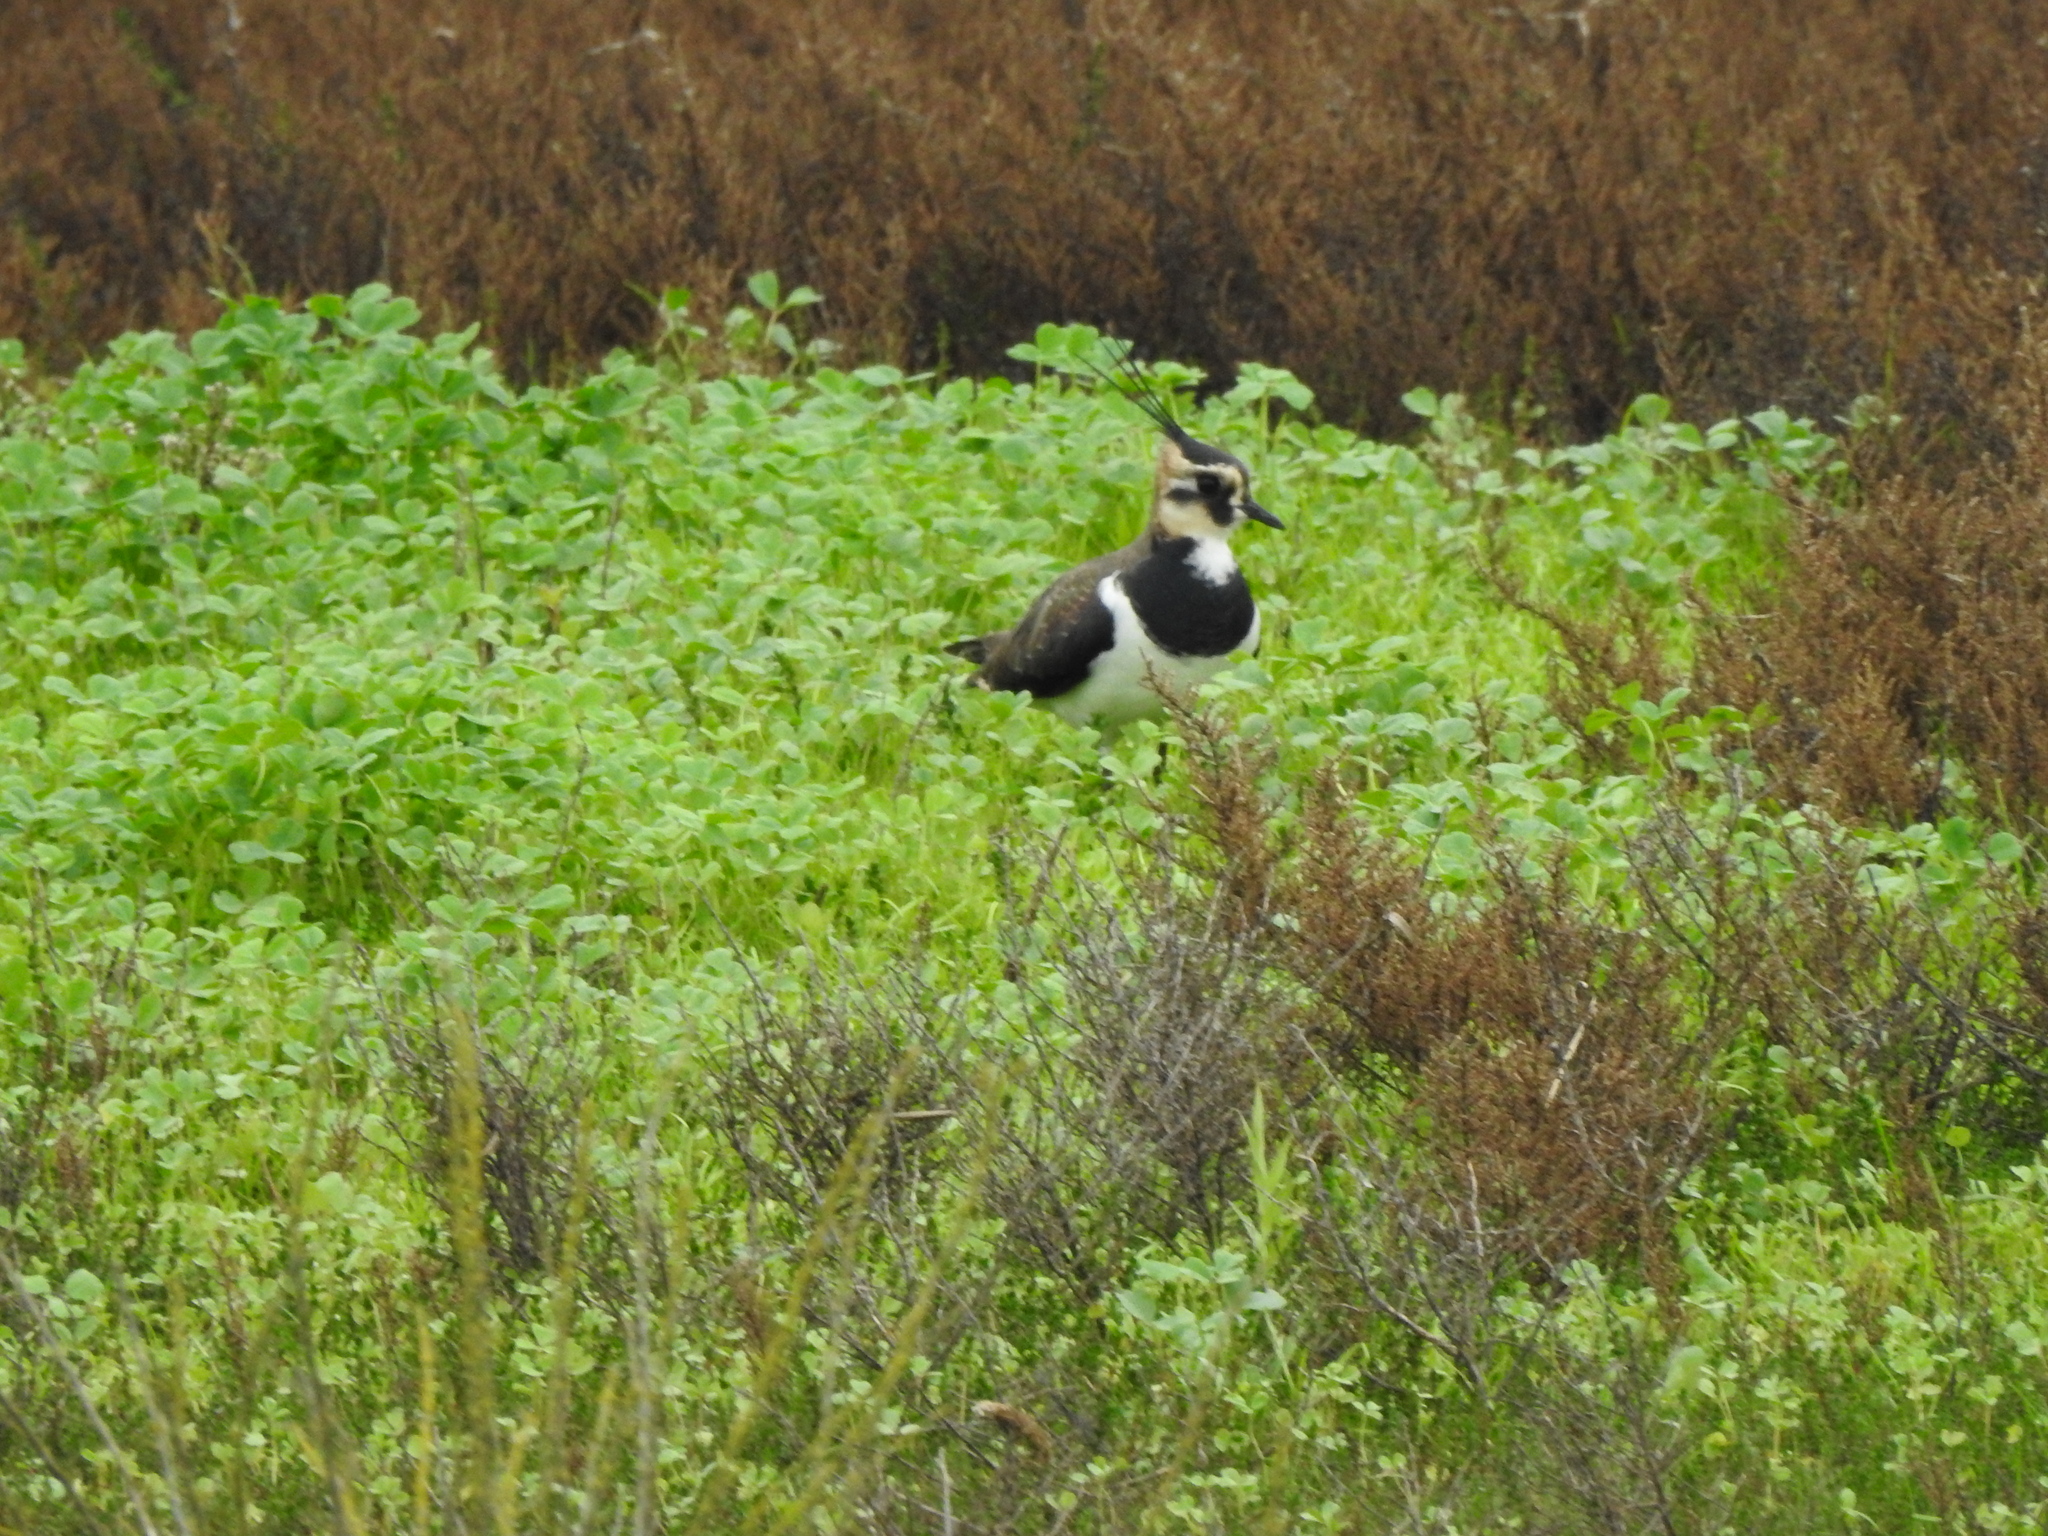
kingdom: Animalia
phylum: Chordata
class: Aves
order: Charadriiformes
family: Charadriidae
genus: Vanellus
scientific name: Vanellus vanellus
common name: Northern lapwing
